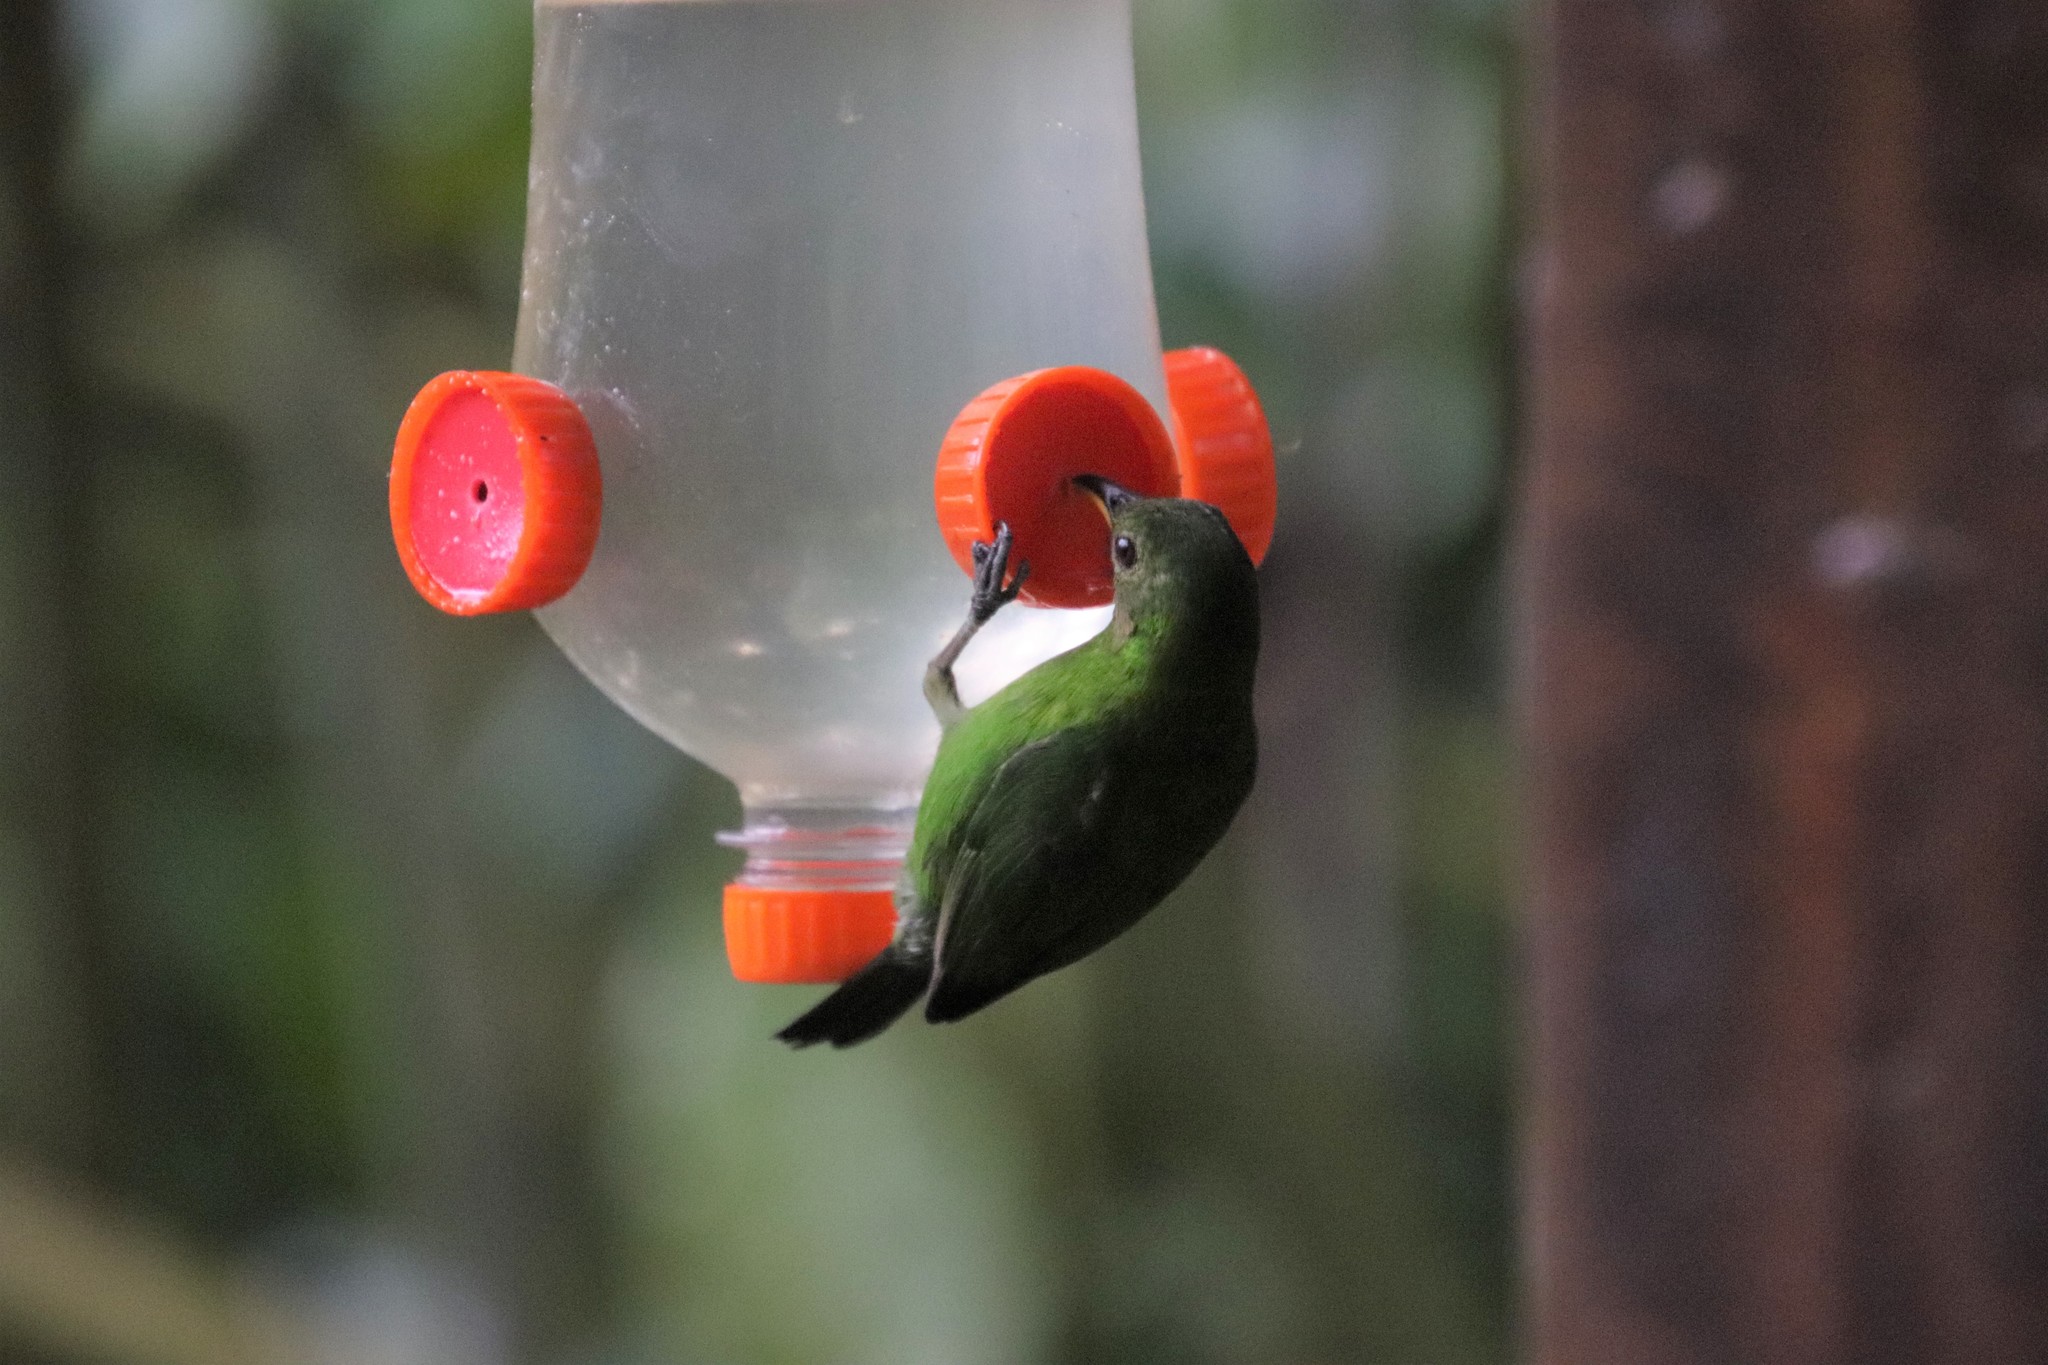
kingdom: Animalia
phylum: Chordata
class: Aves
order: Passeriformes
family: Thraupidae
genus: Chlorophanes
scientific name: Chlorophanes spiza
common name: Green honeycreeper
